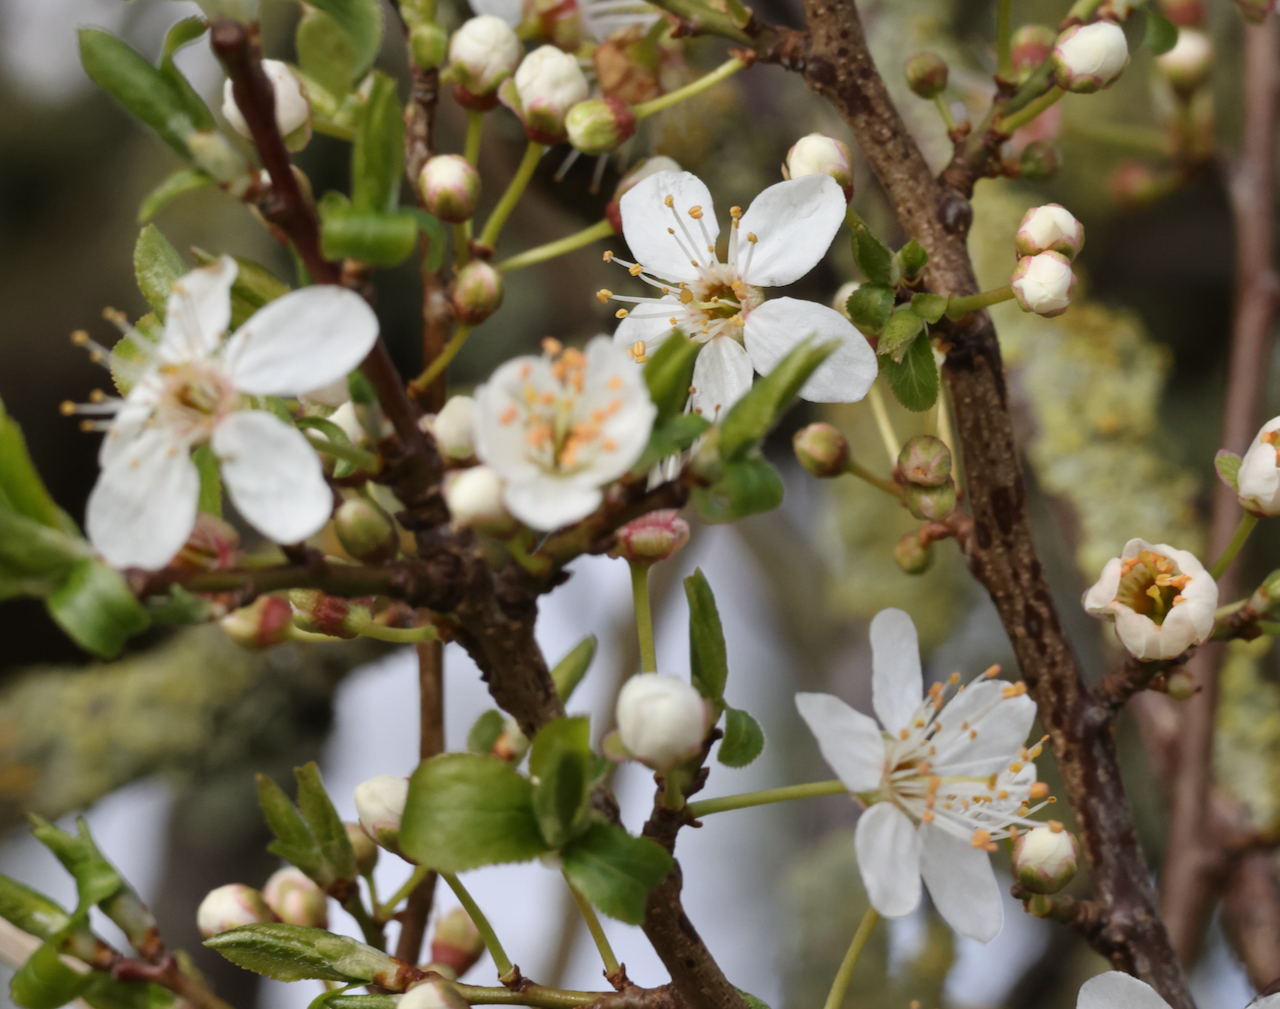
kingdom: Plantae
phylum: Tracheophyta
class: Magnoliopsida
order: Rosales
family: Rosaceae
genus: Prunus
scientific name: Prunus cerasifera
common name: Cherry plum
